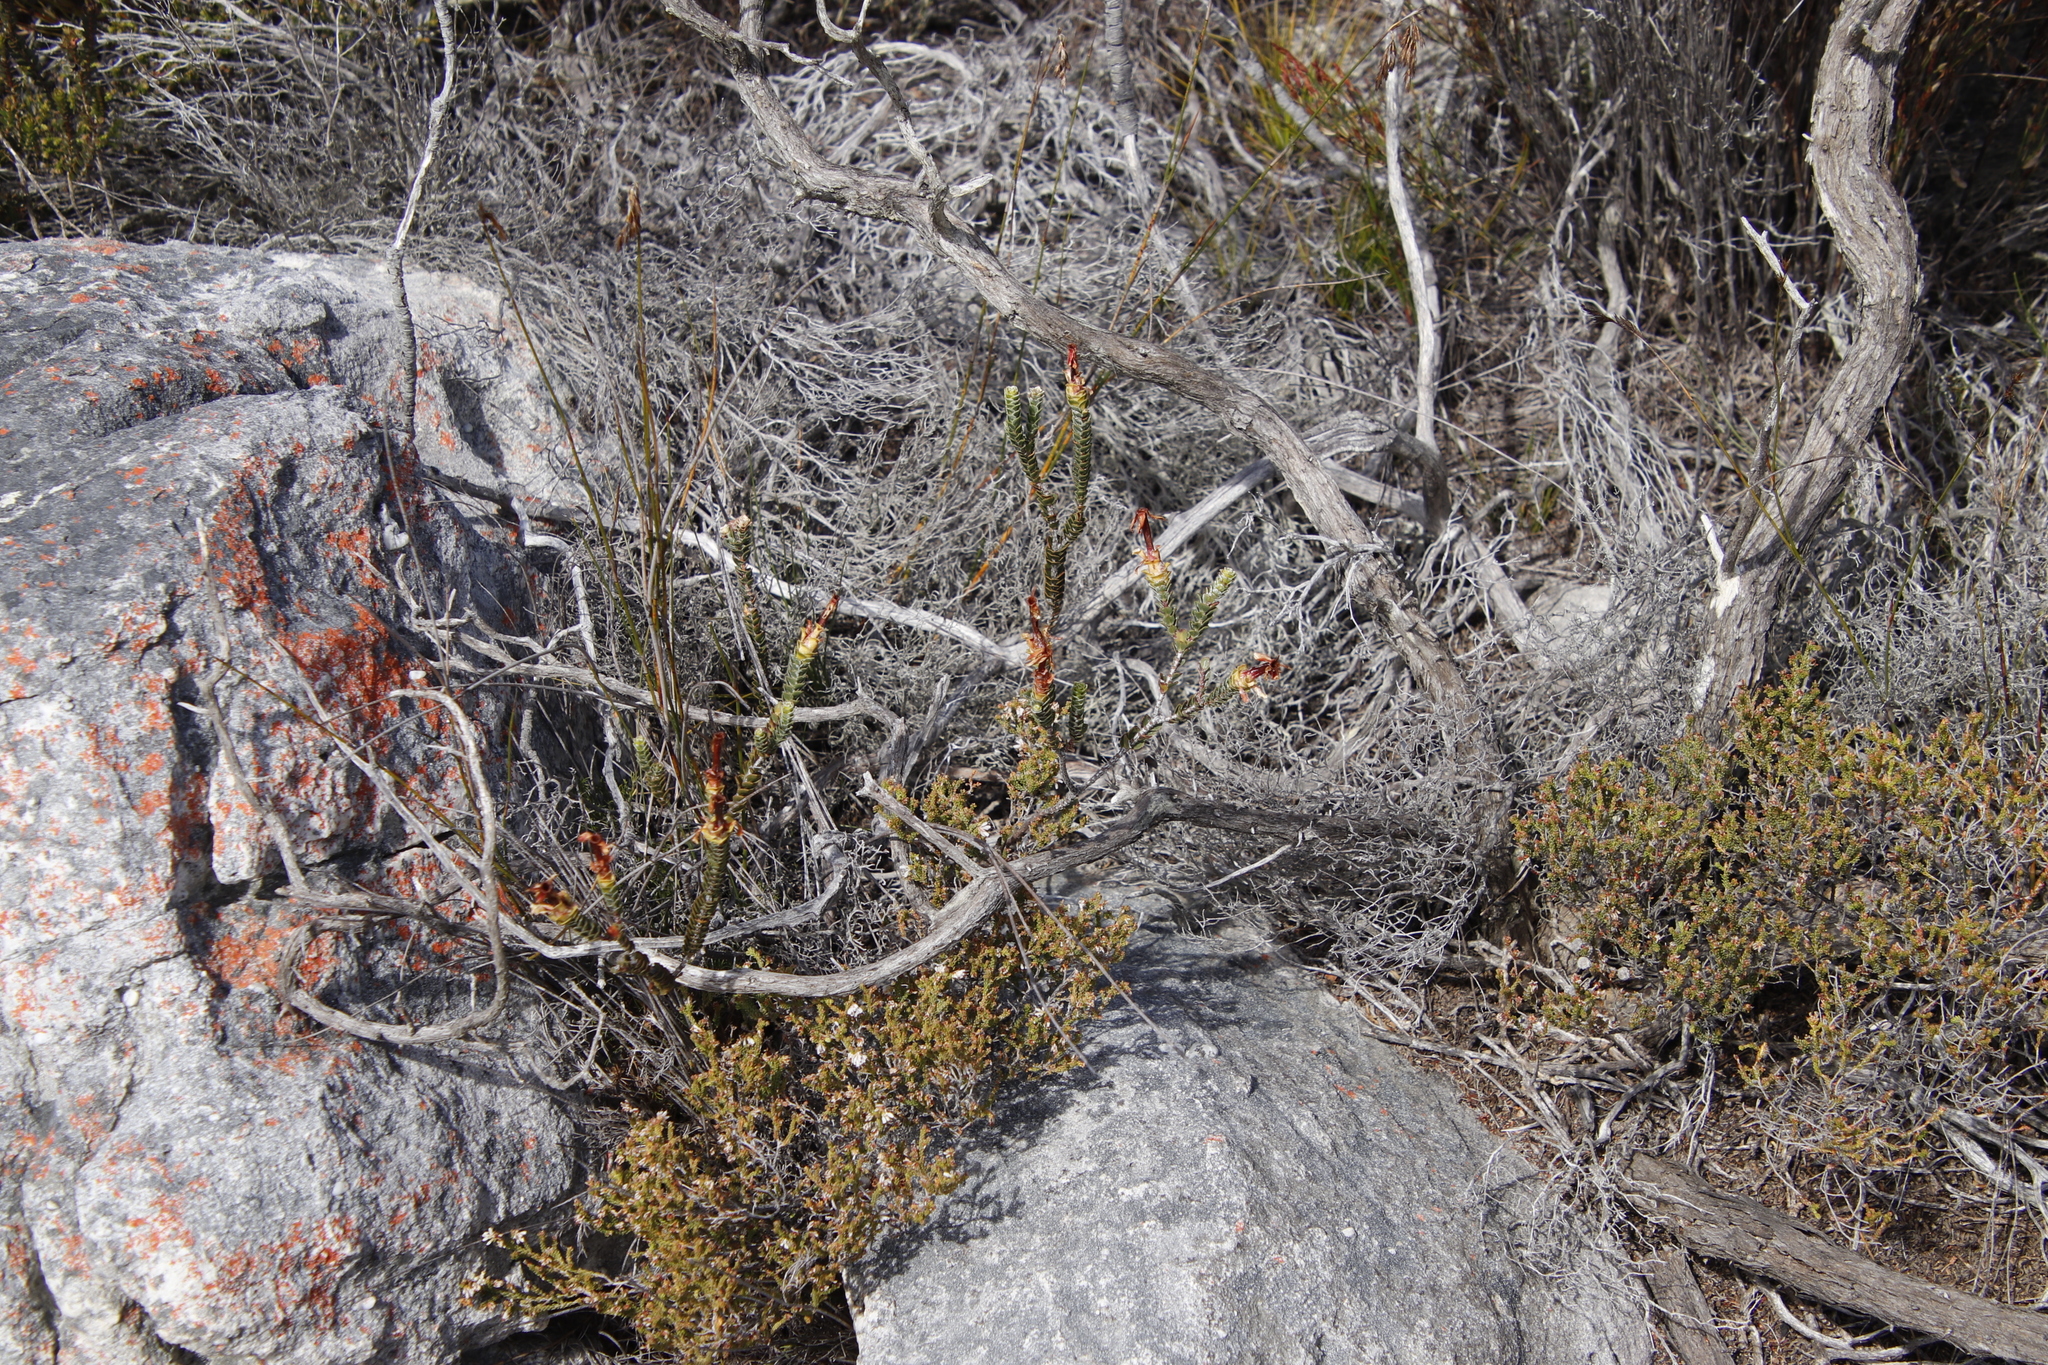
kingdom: Plantae
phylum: Tracheophyta
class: Magnoliopsida
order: Myrtales
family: Penaeaceae
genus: Saltera
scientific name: Saltera sarcocolla
